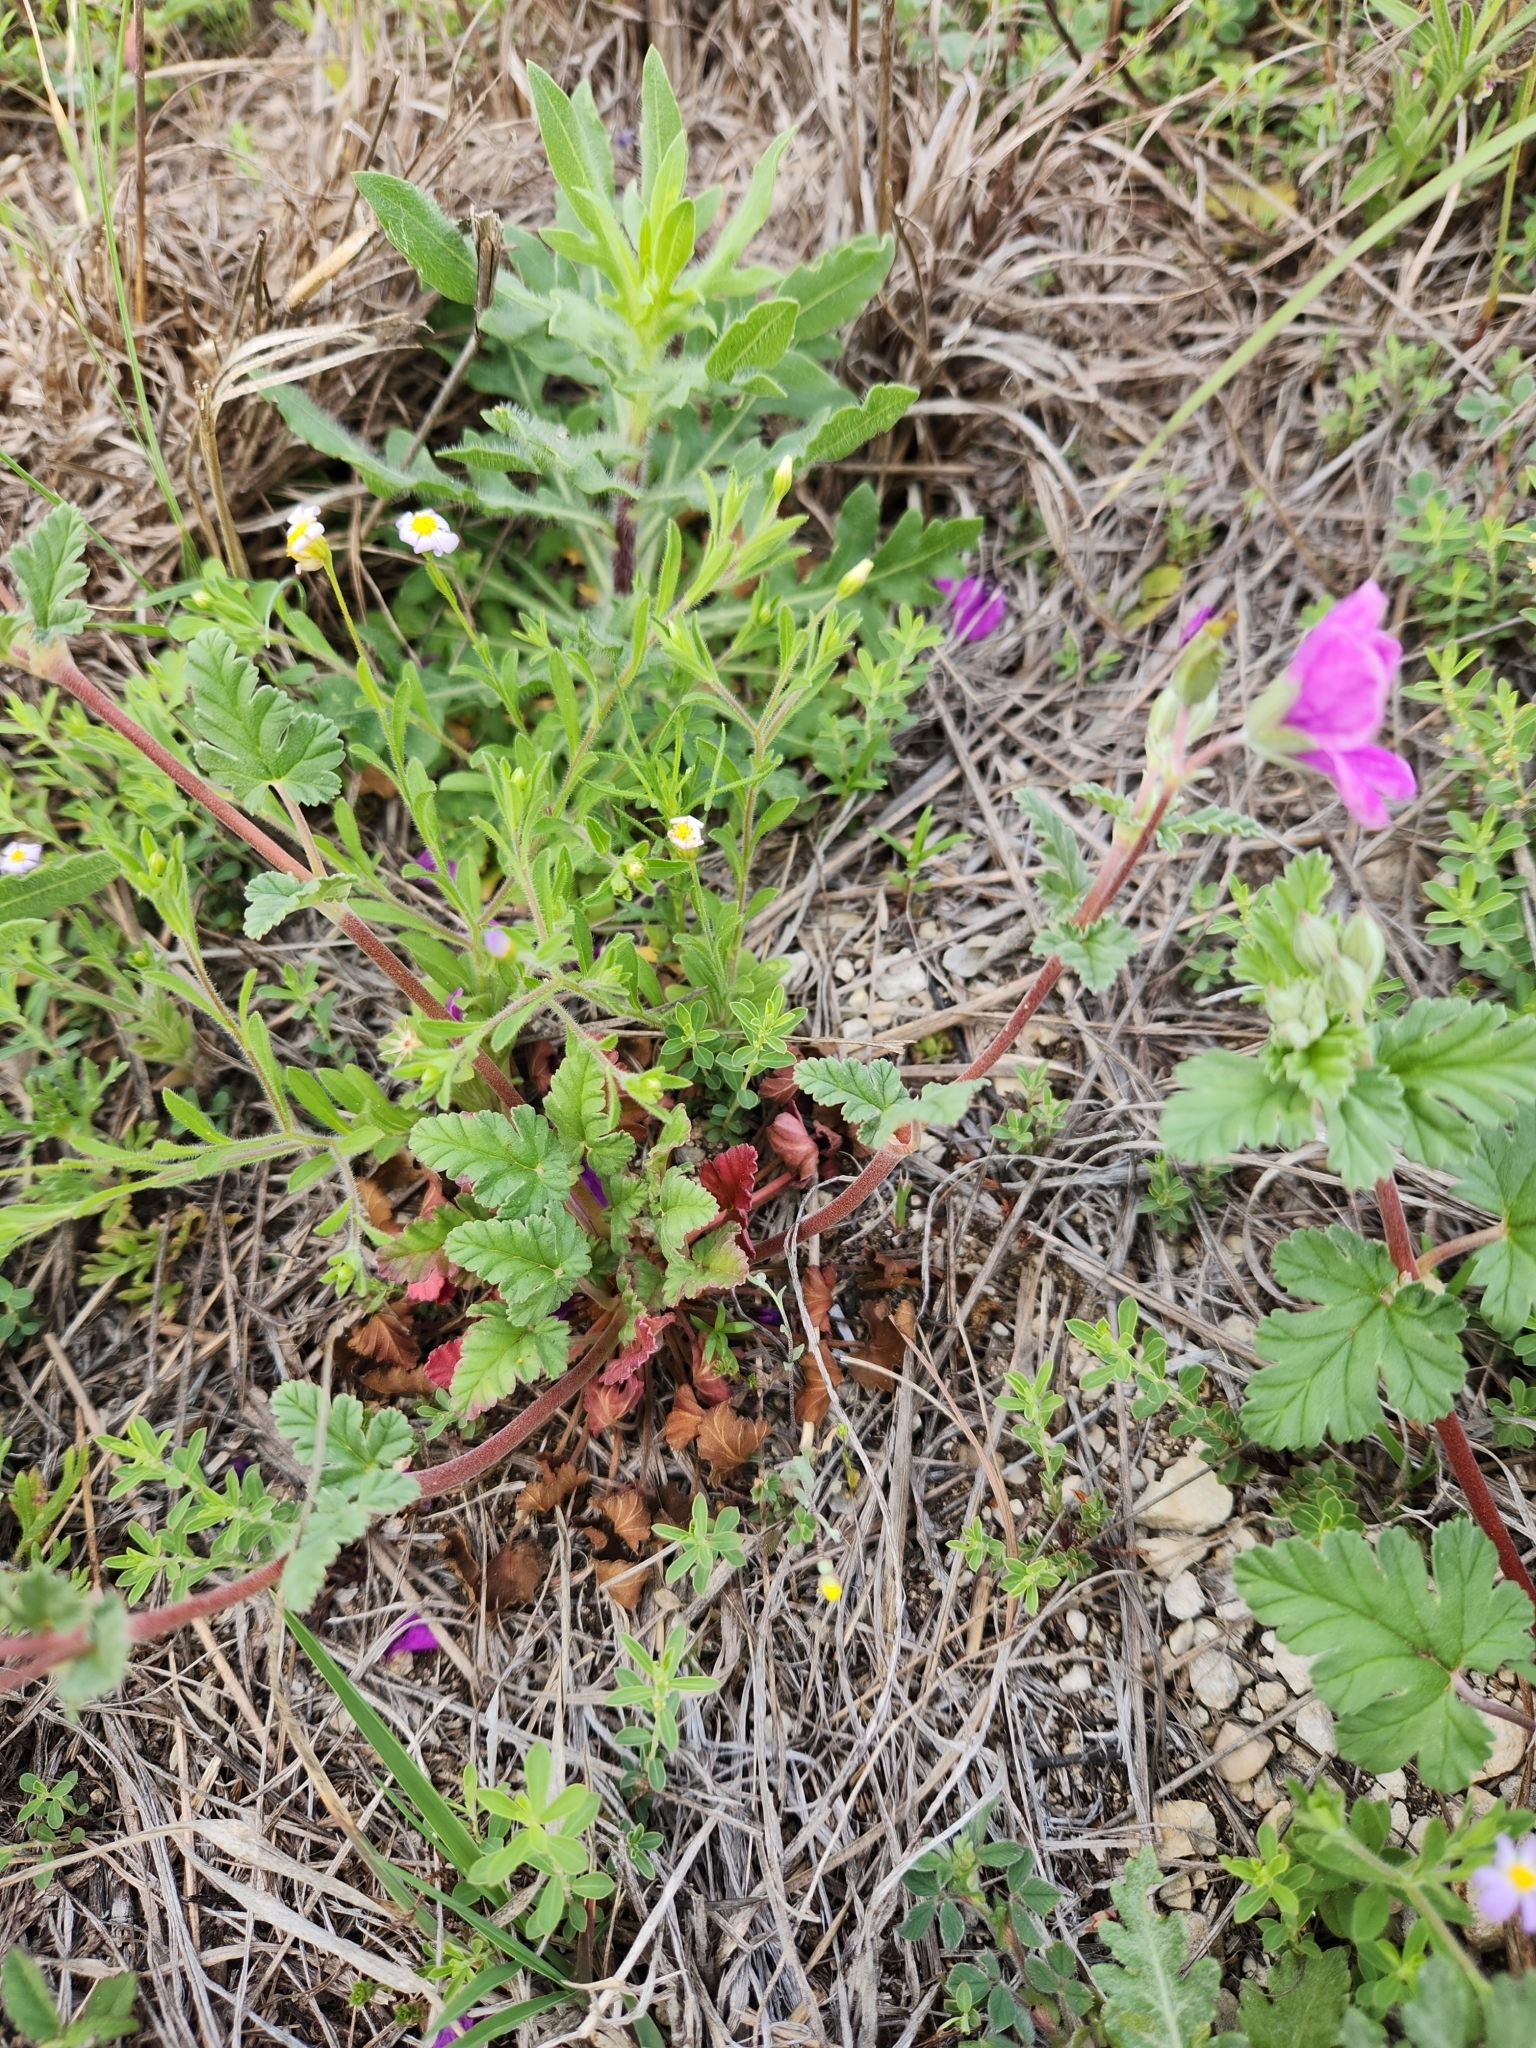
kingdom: Plantae
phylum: Tracheophyta
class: Magnoliopsida
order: Geraniales
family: Geraniaceae
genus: Erodium
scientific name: Erodium texanum
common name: Texas stork's-bill
